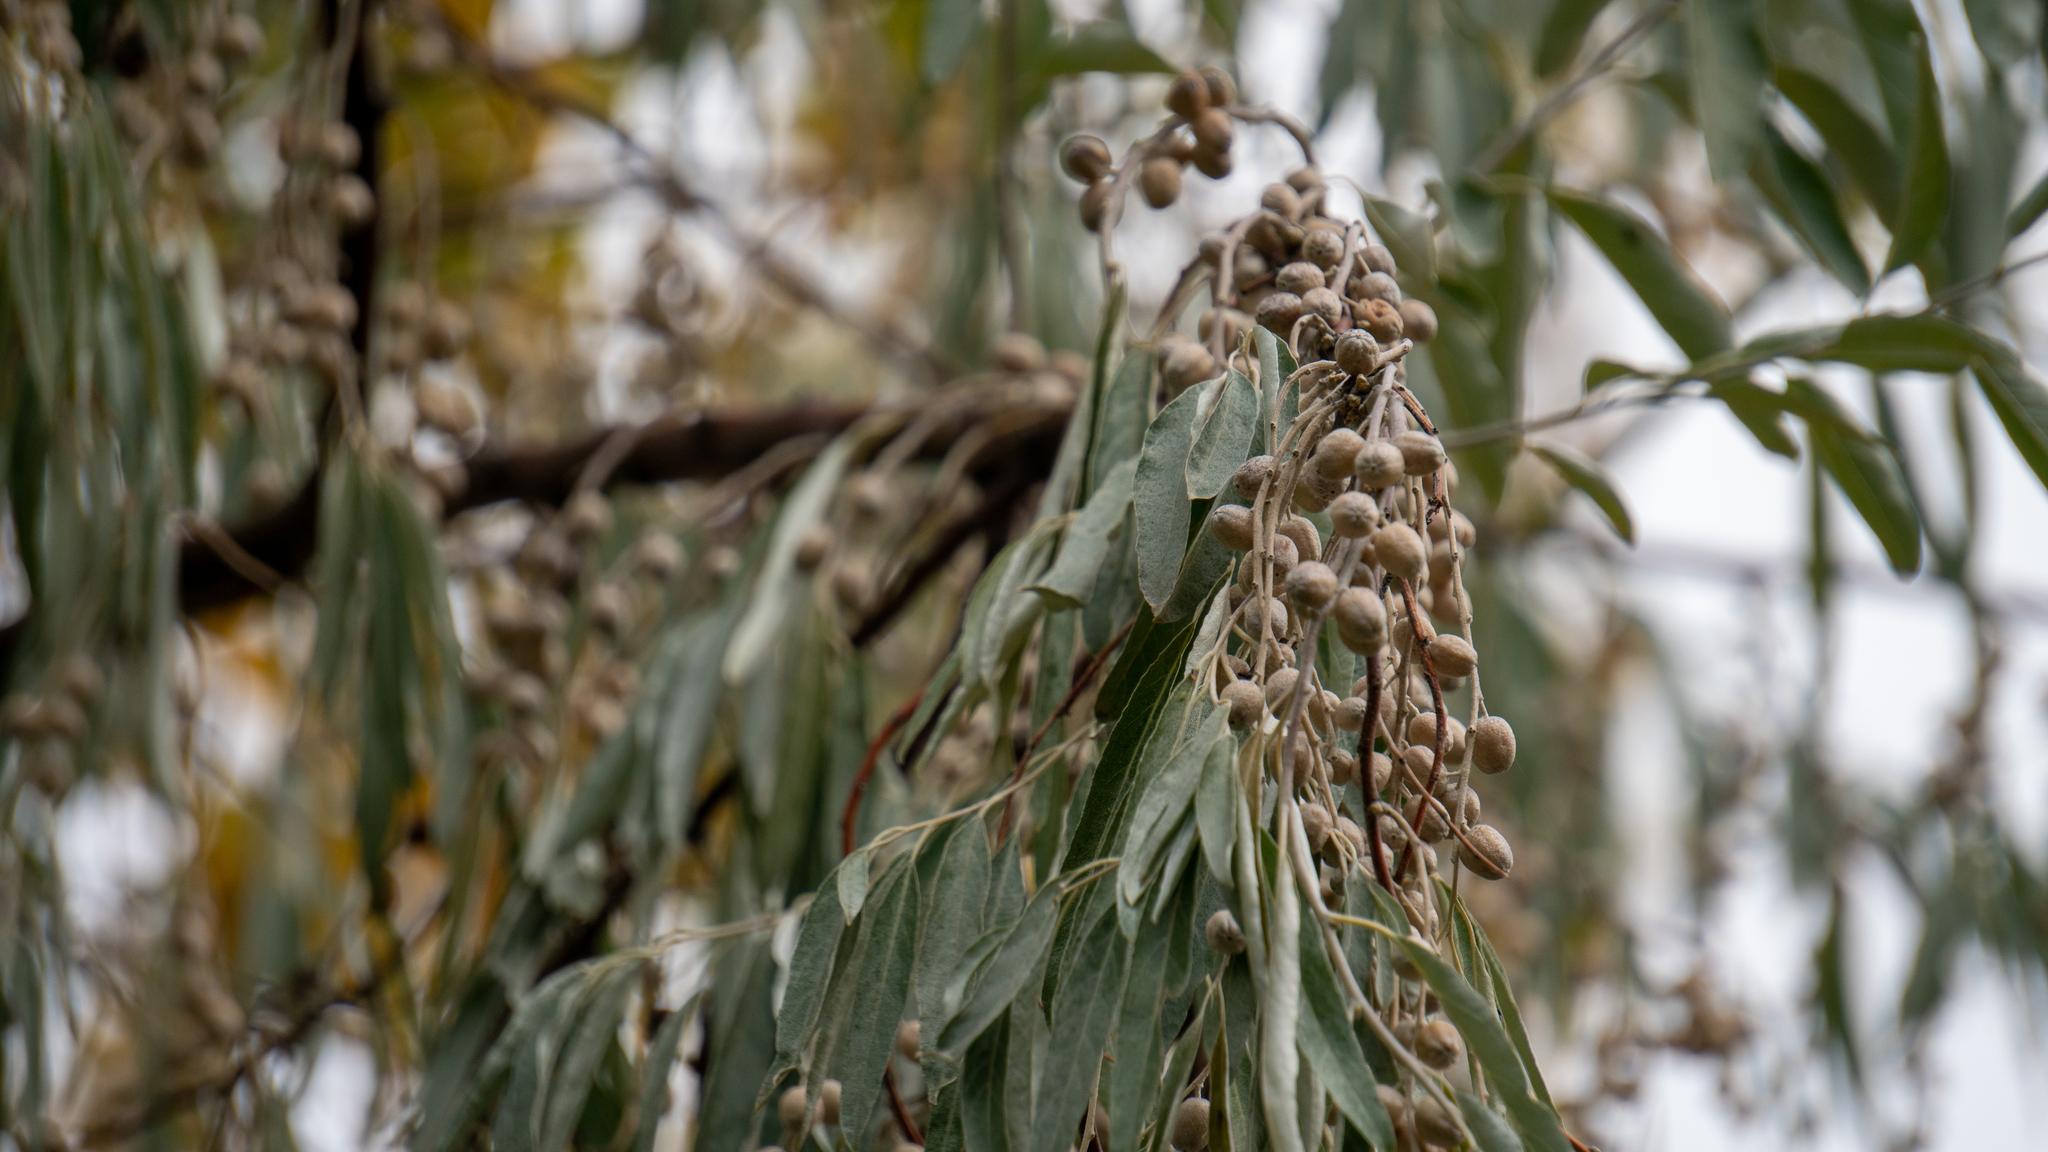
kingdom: Plantae
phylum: Tracheophyta
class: Magnoliopsida
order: Rosales
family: Elaeagnaceae
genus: Elaeagnus
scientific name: Elaeagnus angustifolia
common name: Russian olive
